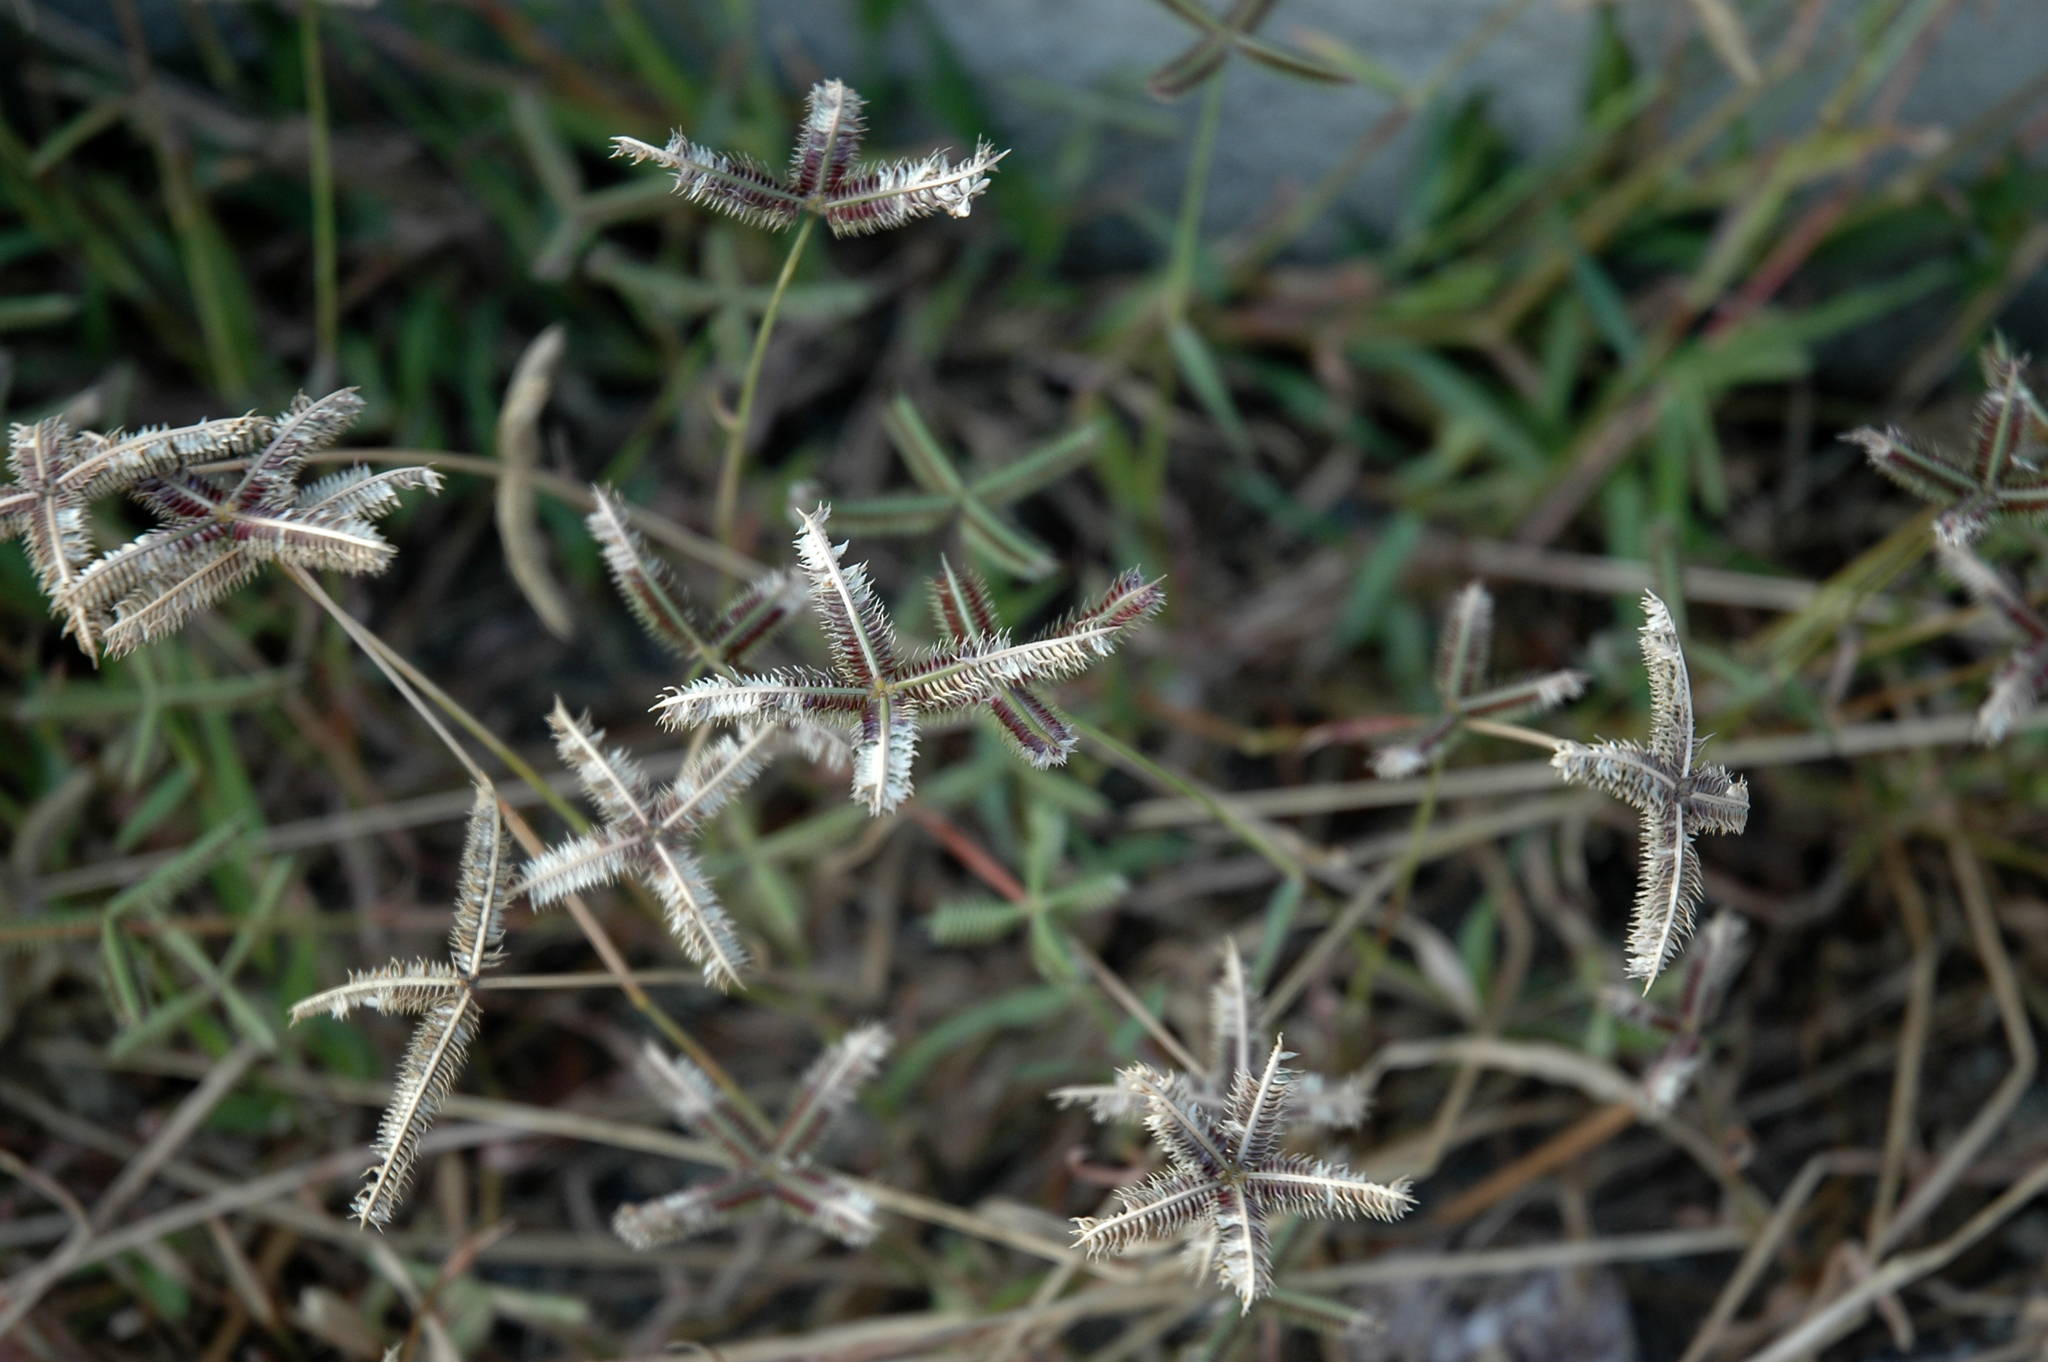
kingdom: Plantae
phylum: Tracheophyta
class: Liliopsida
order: Poales
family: Poaceae
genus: Dactyloctenium
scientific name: Dactyloctenium aegyptium
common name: Egyptian grass
